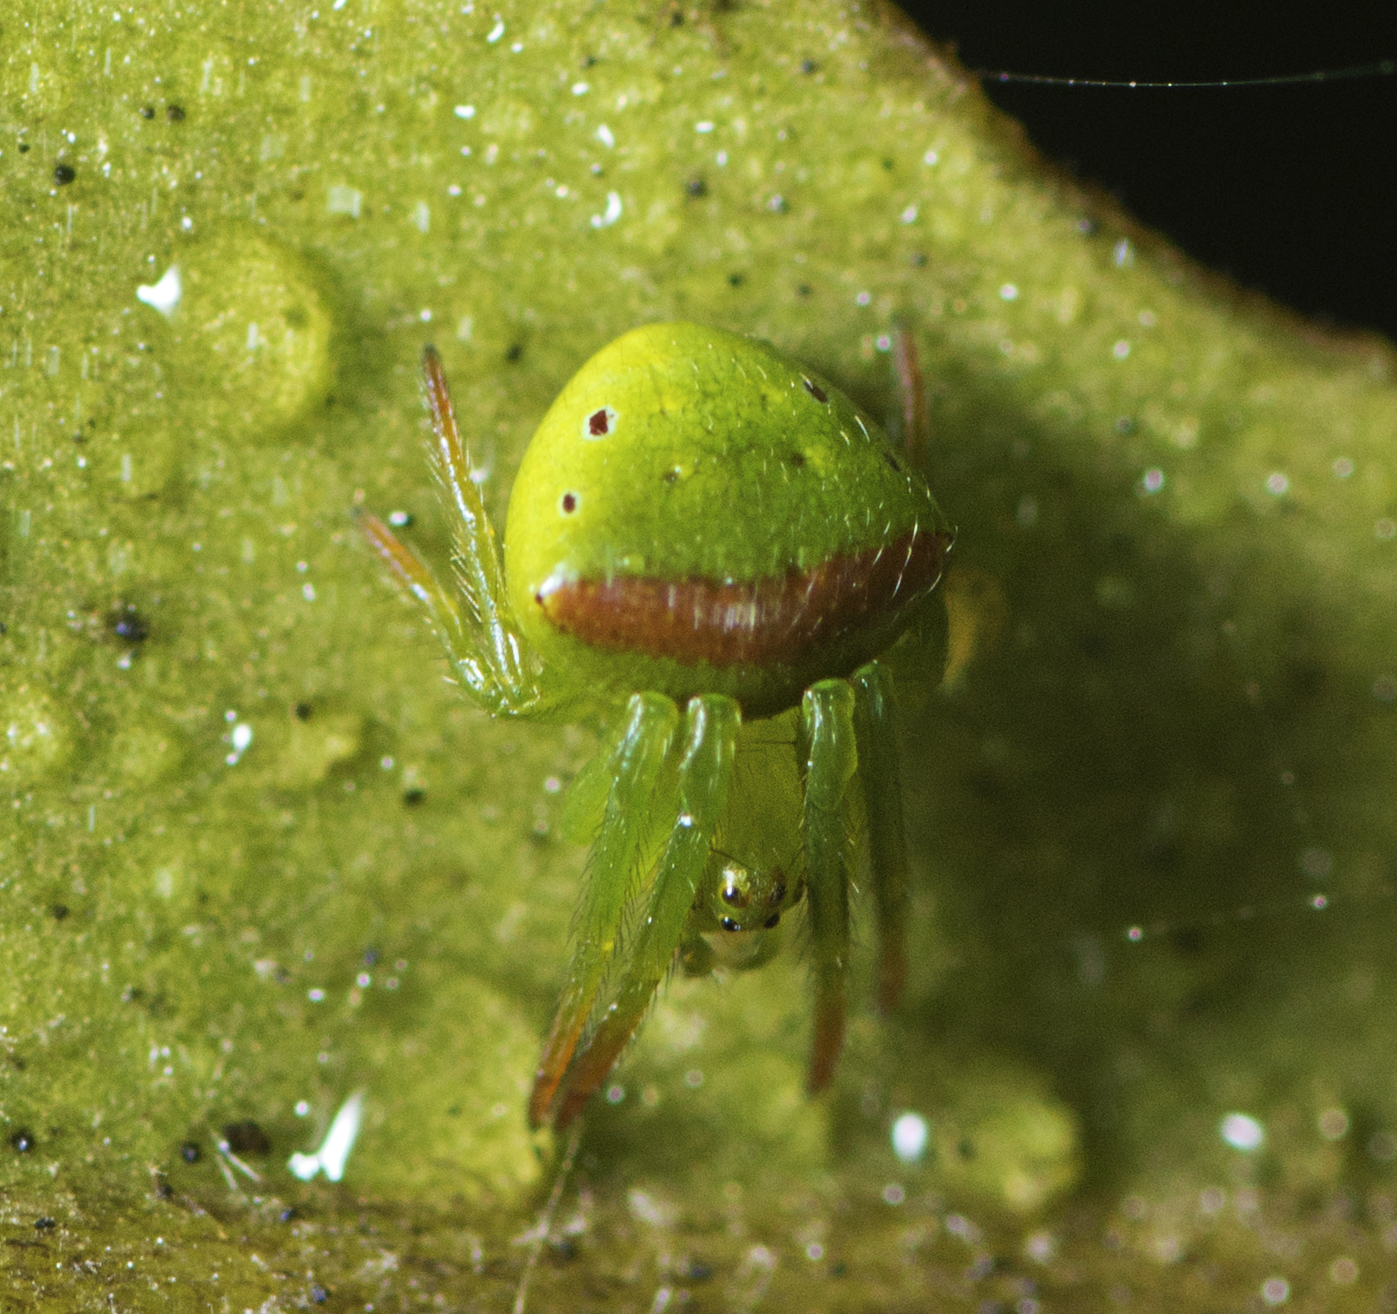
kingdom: Animalia
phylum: Arthropoda
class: Arachnida
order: Araneae
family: Araneidae
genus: Araneus
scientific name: Araneus cyrtarachnoides
